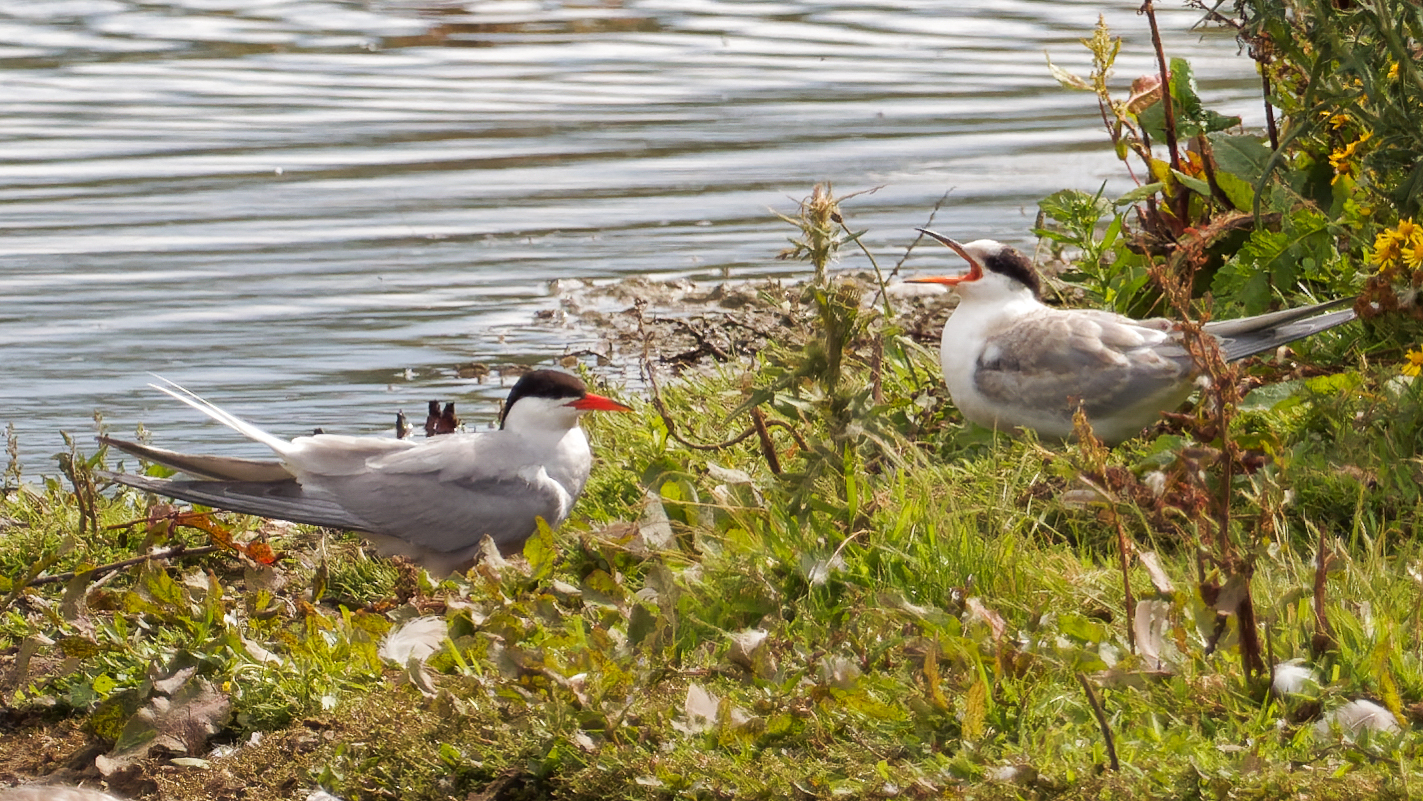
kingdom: Animalia
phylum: Chordata
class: Aves
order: Charadriiformes
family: Laridae
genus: Sterna
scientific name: Sterna hirundo
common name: Common tern
